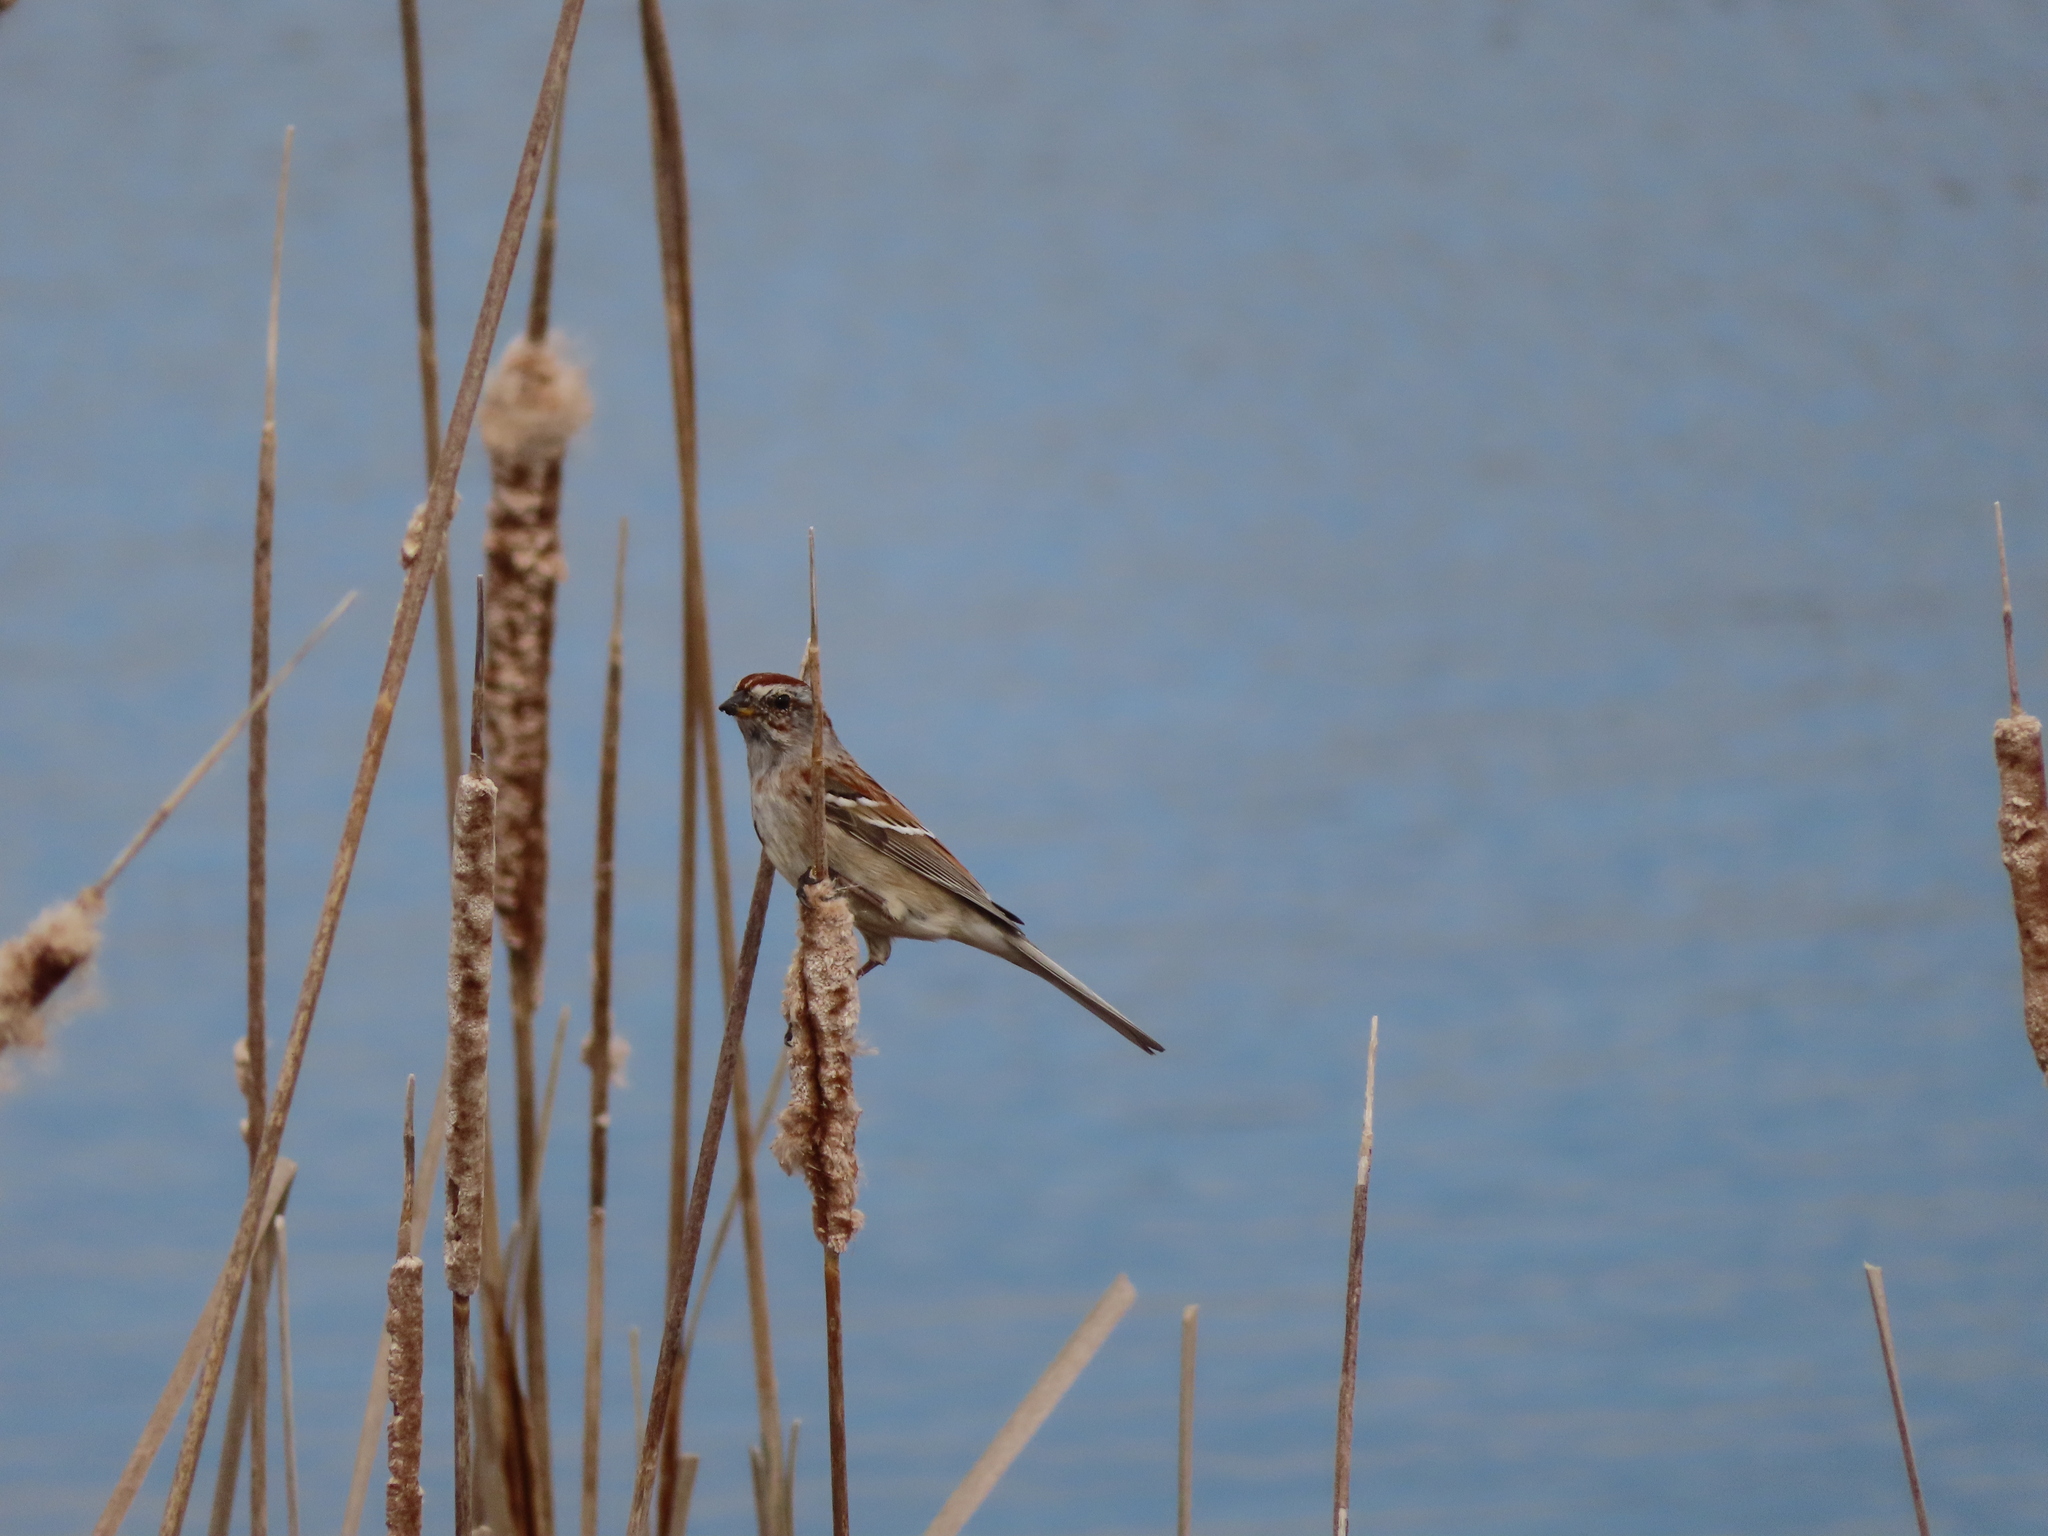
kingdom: Animalia
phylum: Chordata
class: Aves
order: Passeriformes
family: Passerellidae
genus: Spizelloides
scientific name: Spizelloides arborea
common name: American tree sparrow
